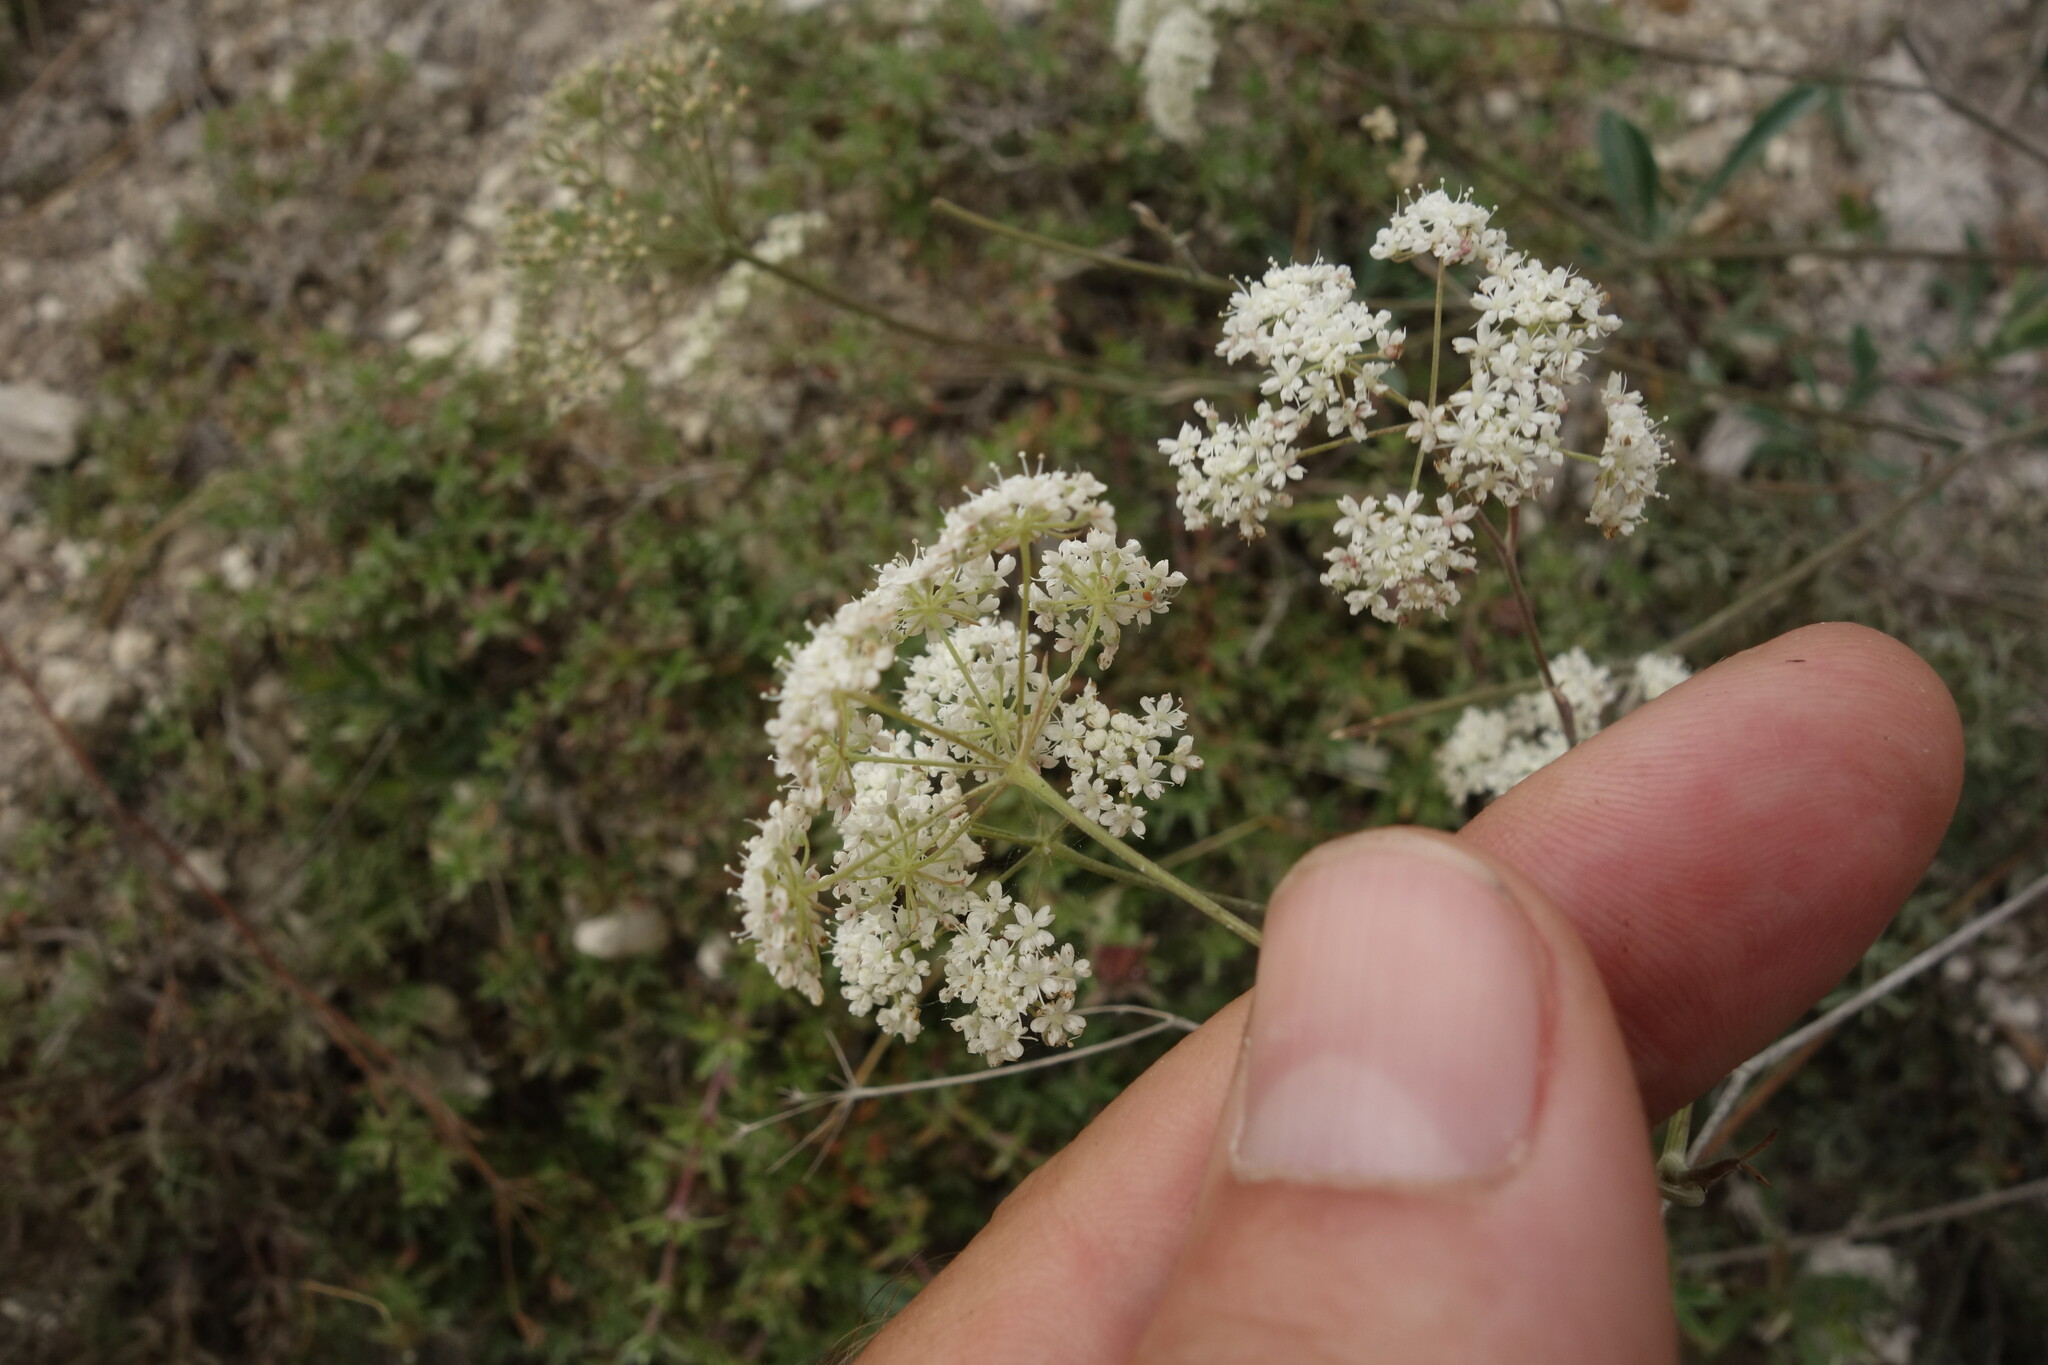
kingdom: Plantae
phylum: Tracheophyta
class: Magnoliopsida
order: Apiales
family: Apiaceae
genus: Pimpinella
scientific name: Pimpinella tragium
